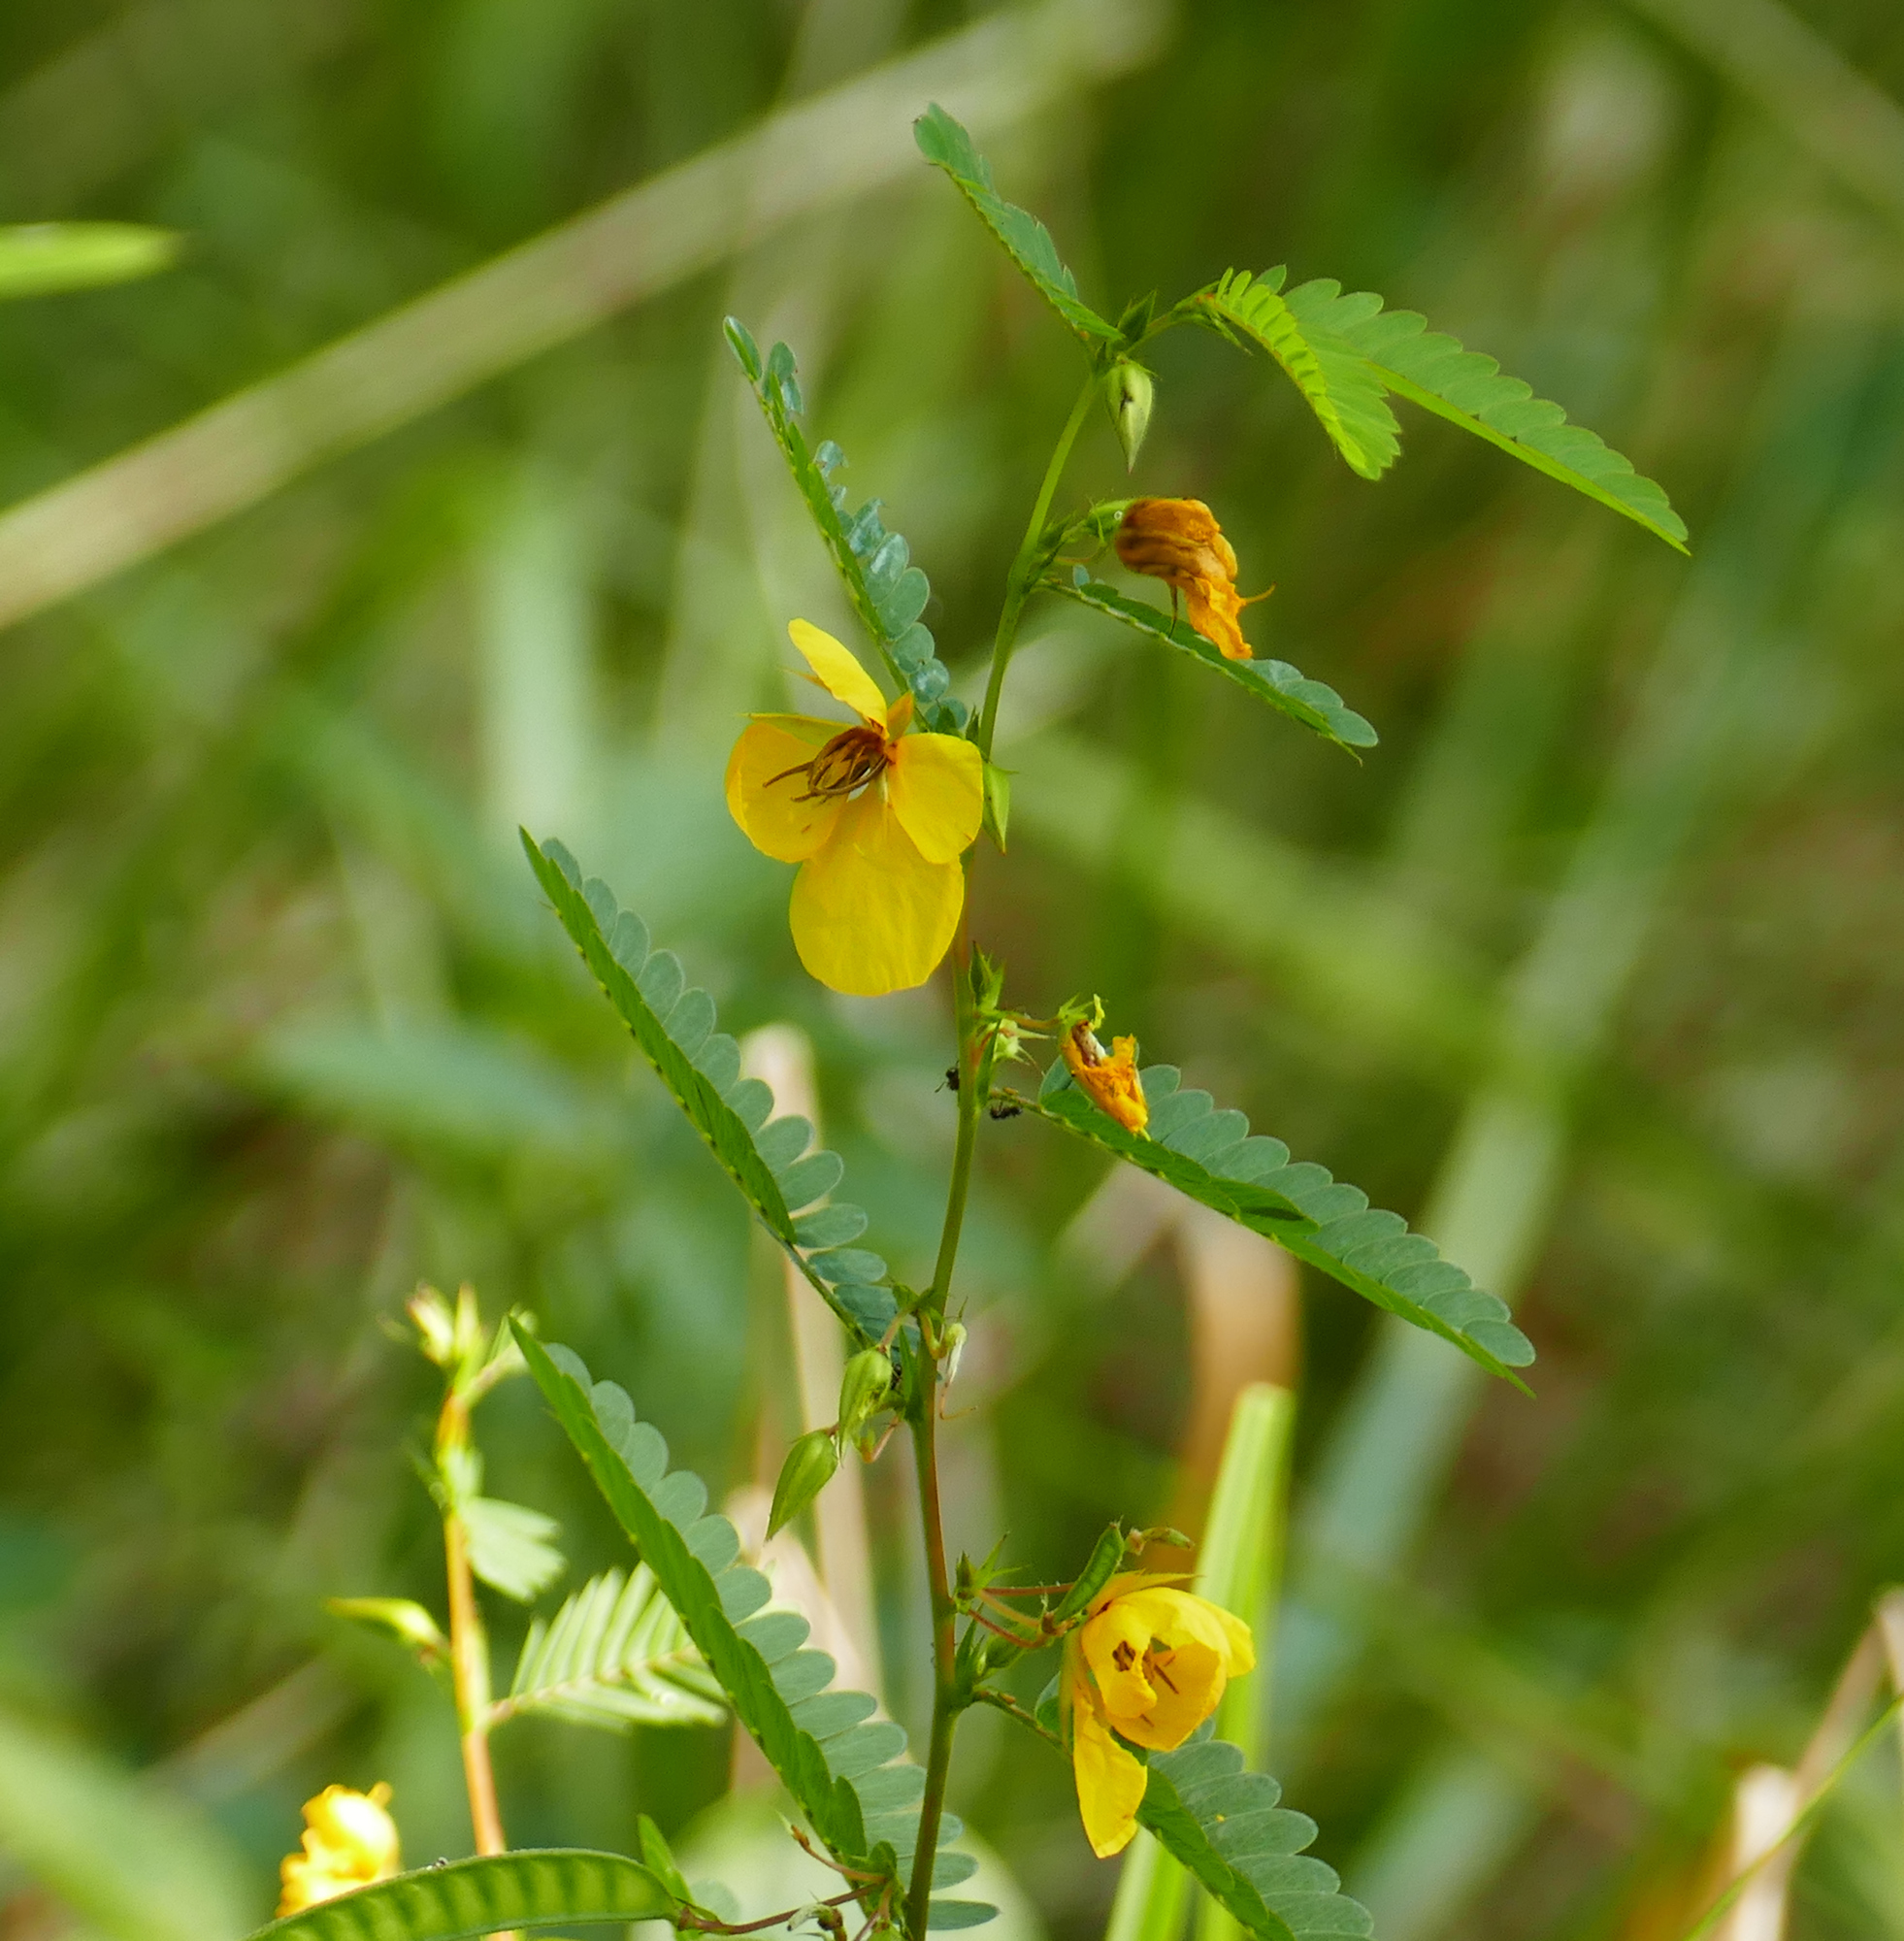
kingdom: Plantae
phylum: Tracheophyta
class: Magnoliopsida
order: Fabales
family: Fabaceae
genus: Chamaecrista
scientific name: Chamaecrista fasciculata
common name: Golden cassia
